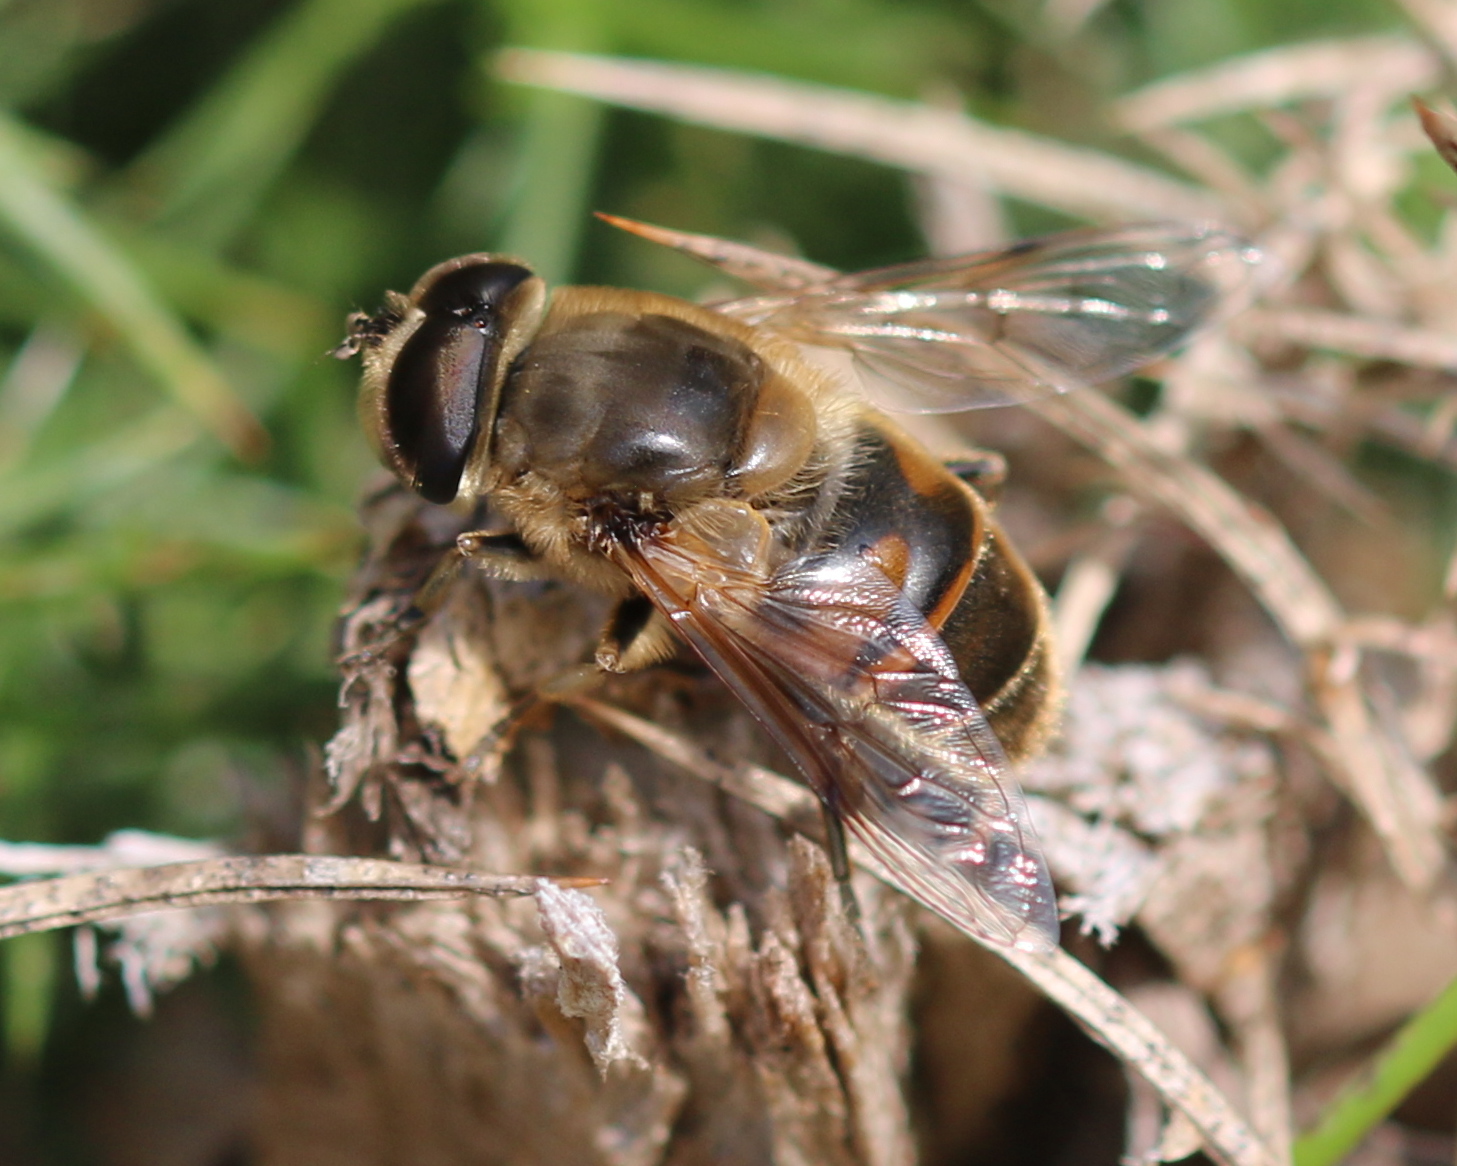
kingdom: Animalia
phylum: Arthropoda
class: Insecta
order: Diptera
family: Syrphidae
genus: Eristalis
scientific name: Eristalis tenax
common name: Drone fly
